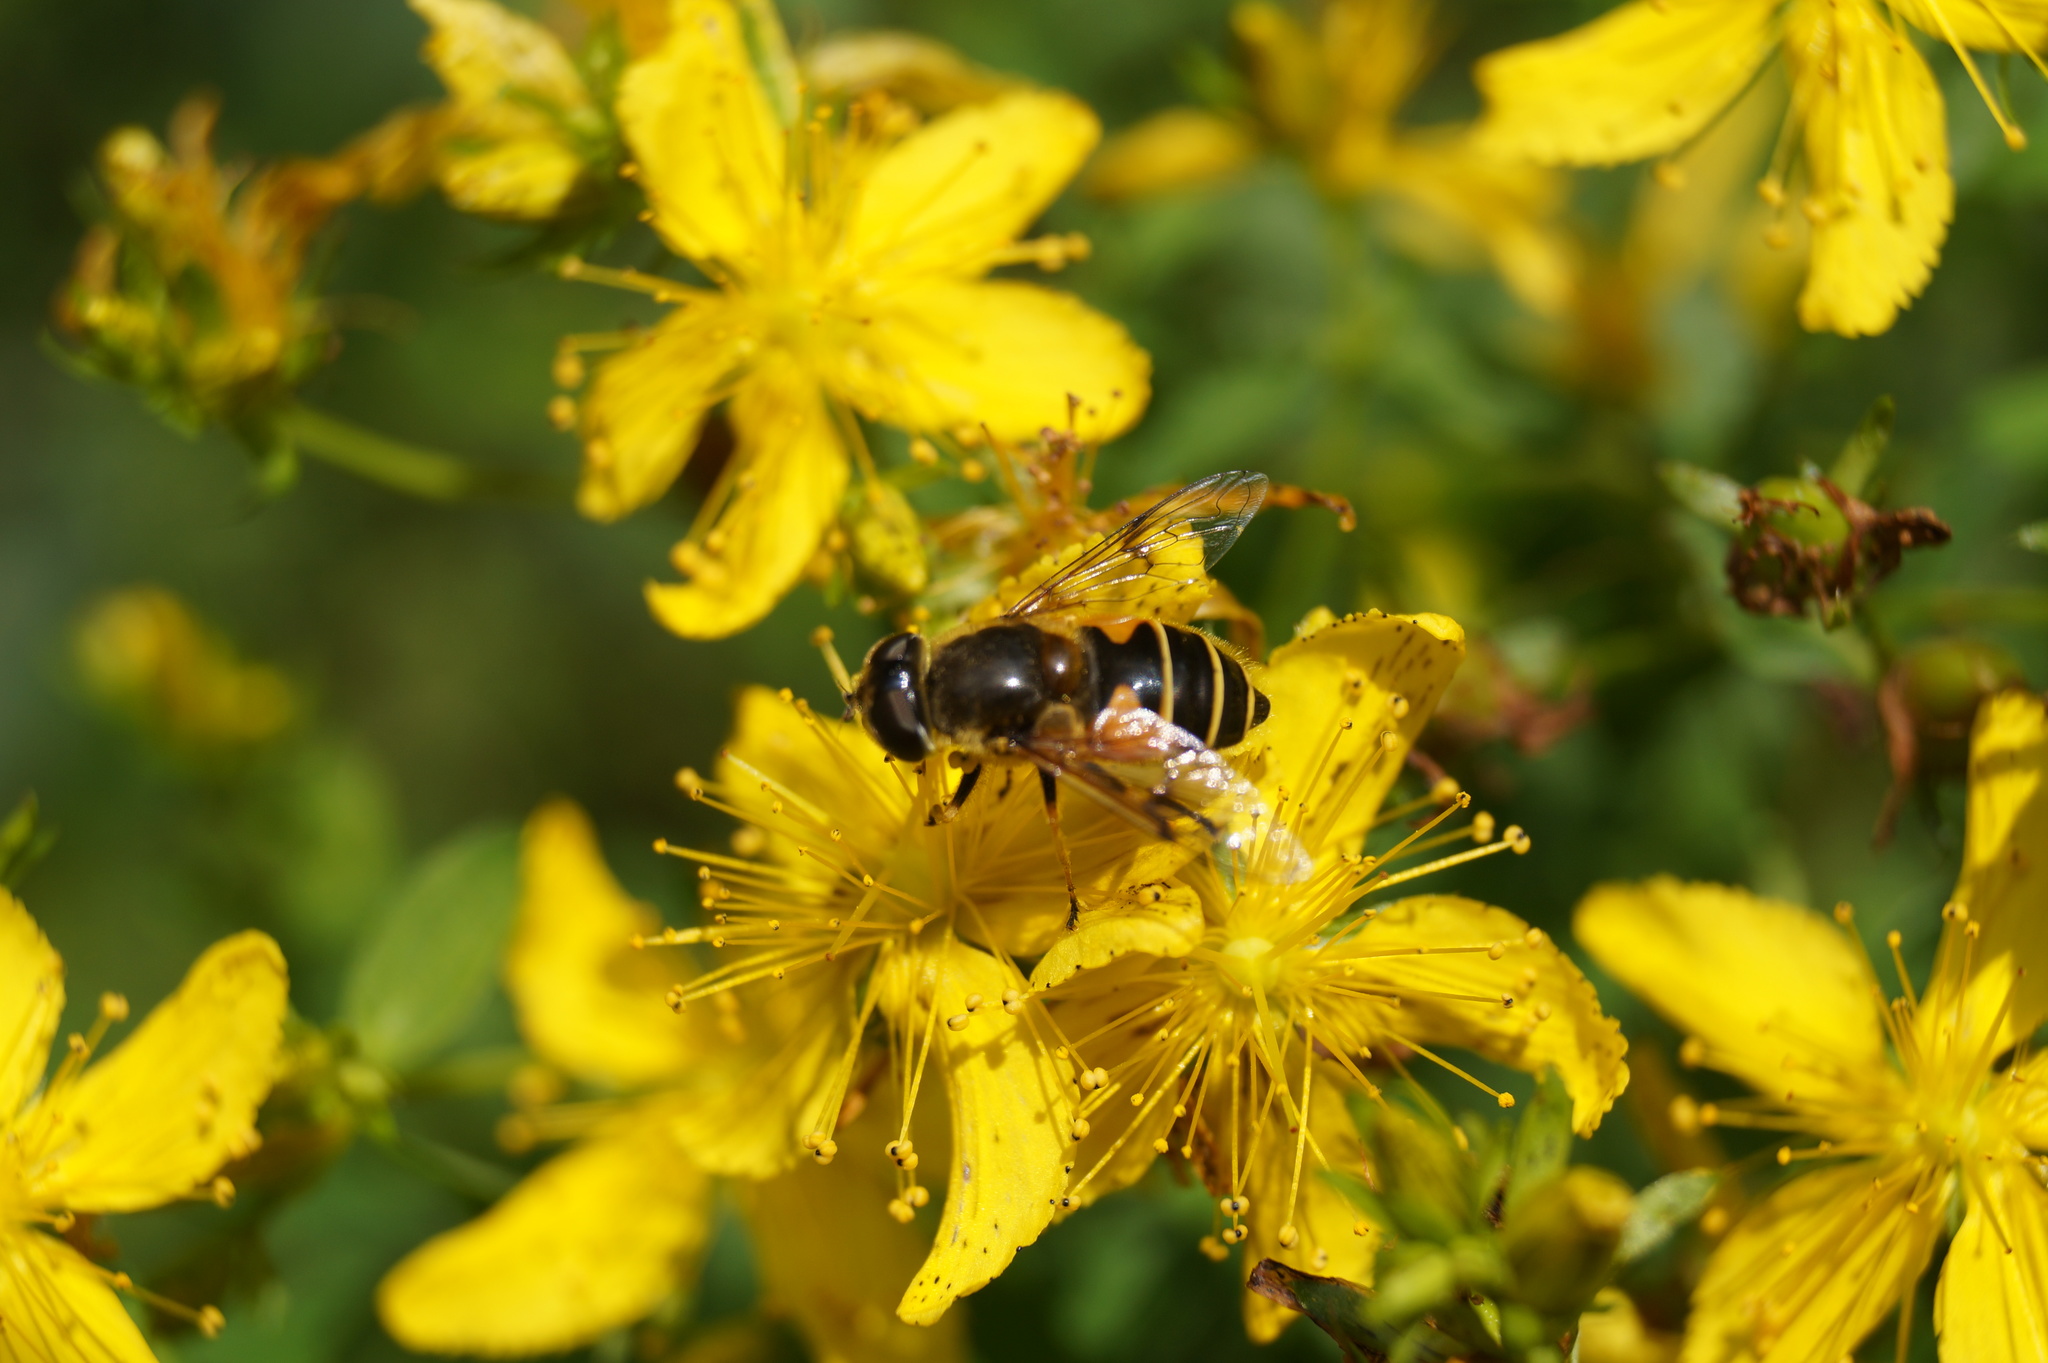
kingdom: Animalia
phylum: Arthropoda
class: Insecta
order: Diptera
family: Syrphidae
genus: Cheilosia
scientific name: Cheilosia morio
